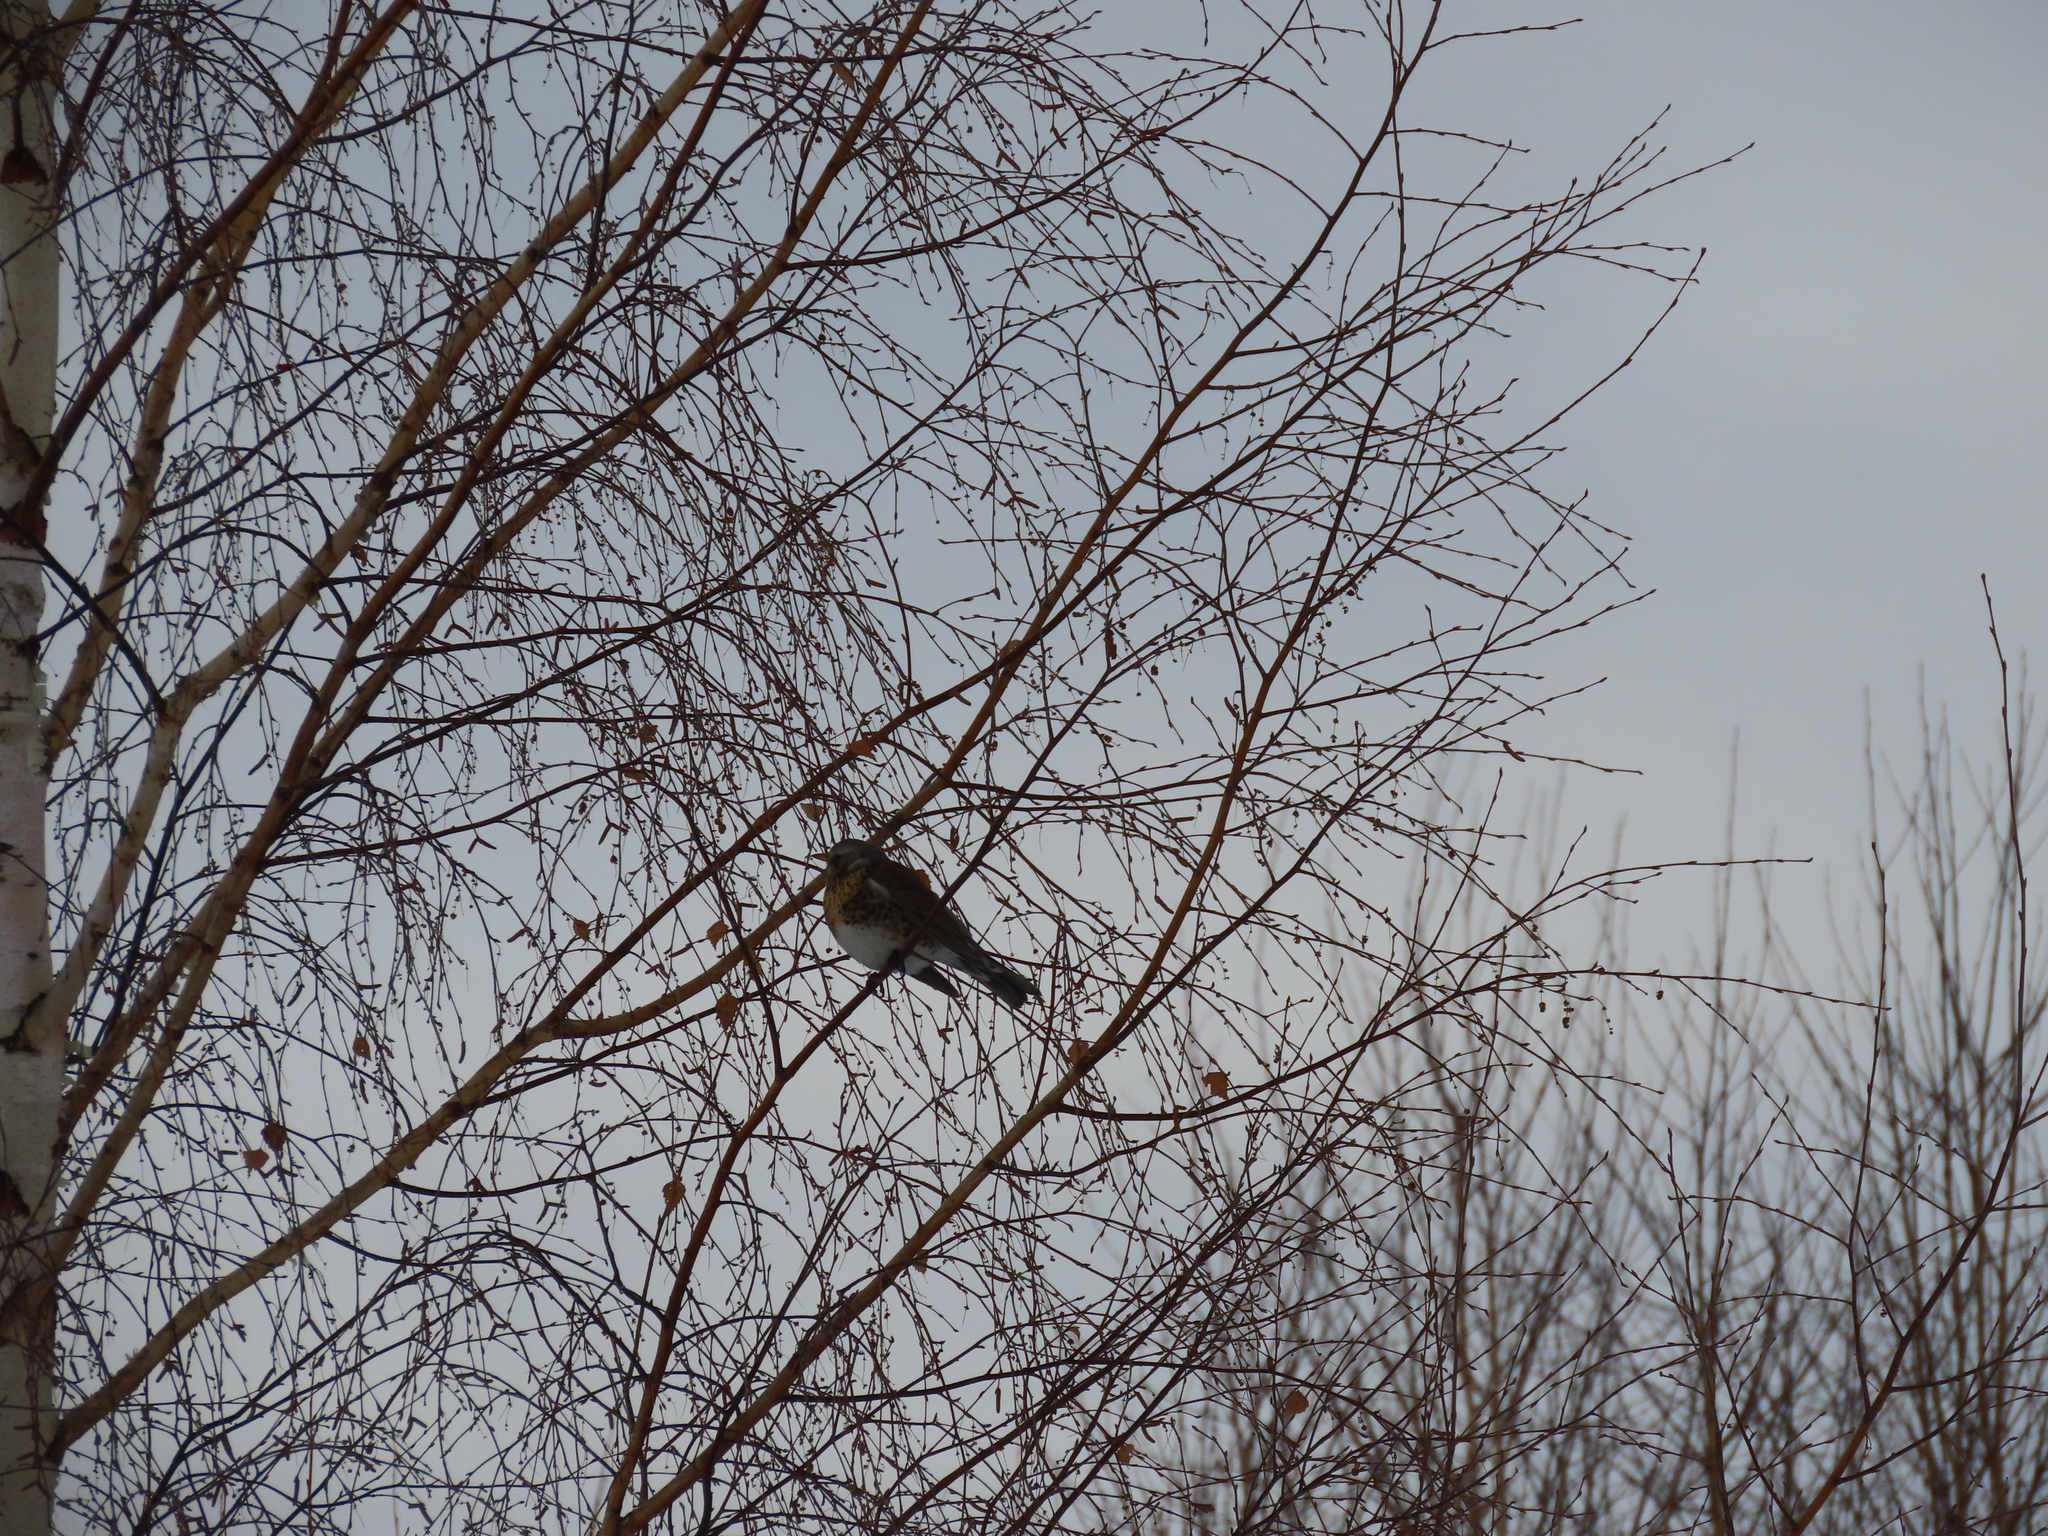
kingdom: Animalia
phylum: Chordata
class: Aves
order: Passeriformes
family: Turdidae
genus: Turdus
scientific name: Turdus pilaris
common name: Fieldfare
